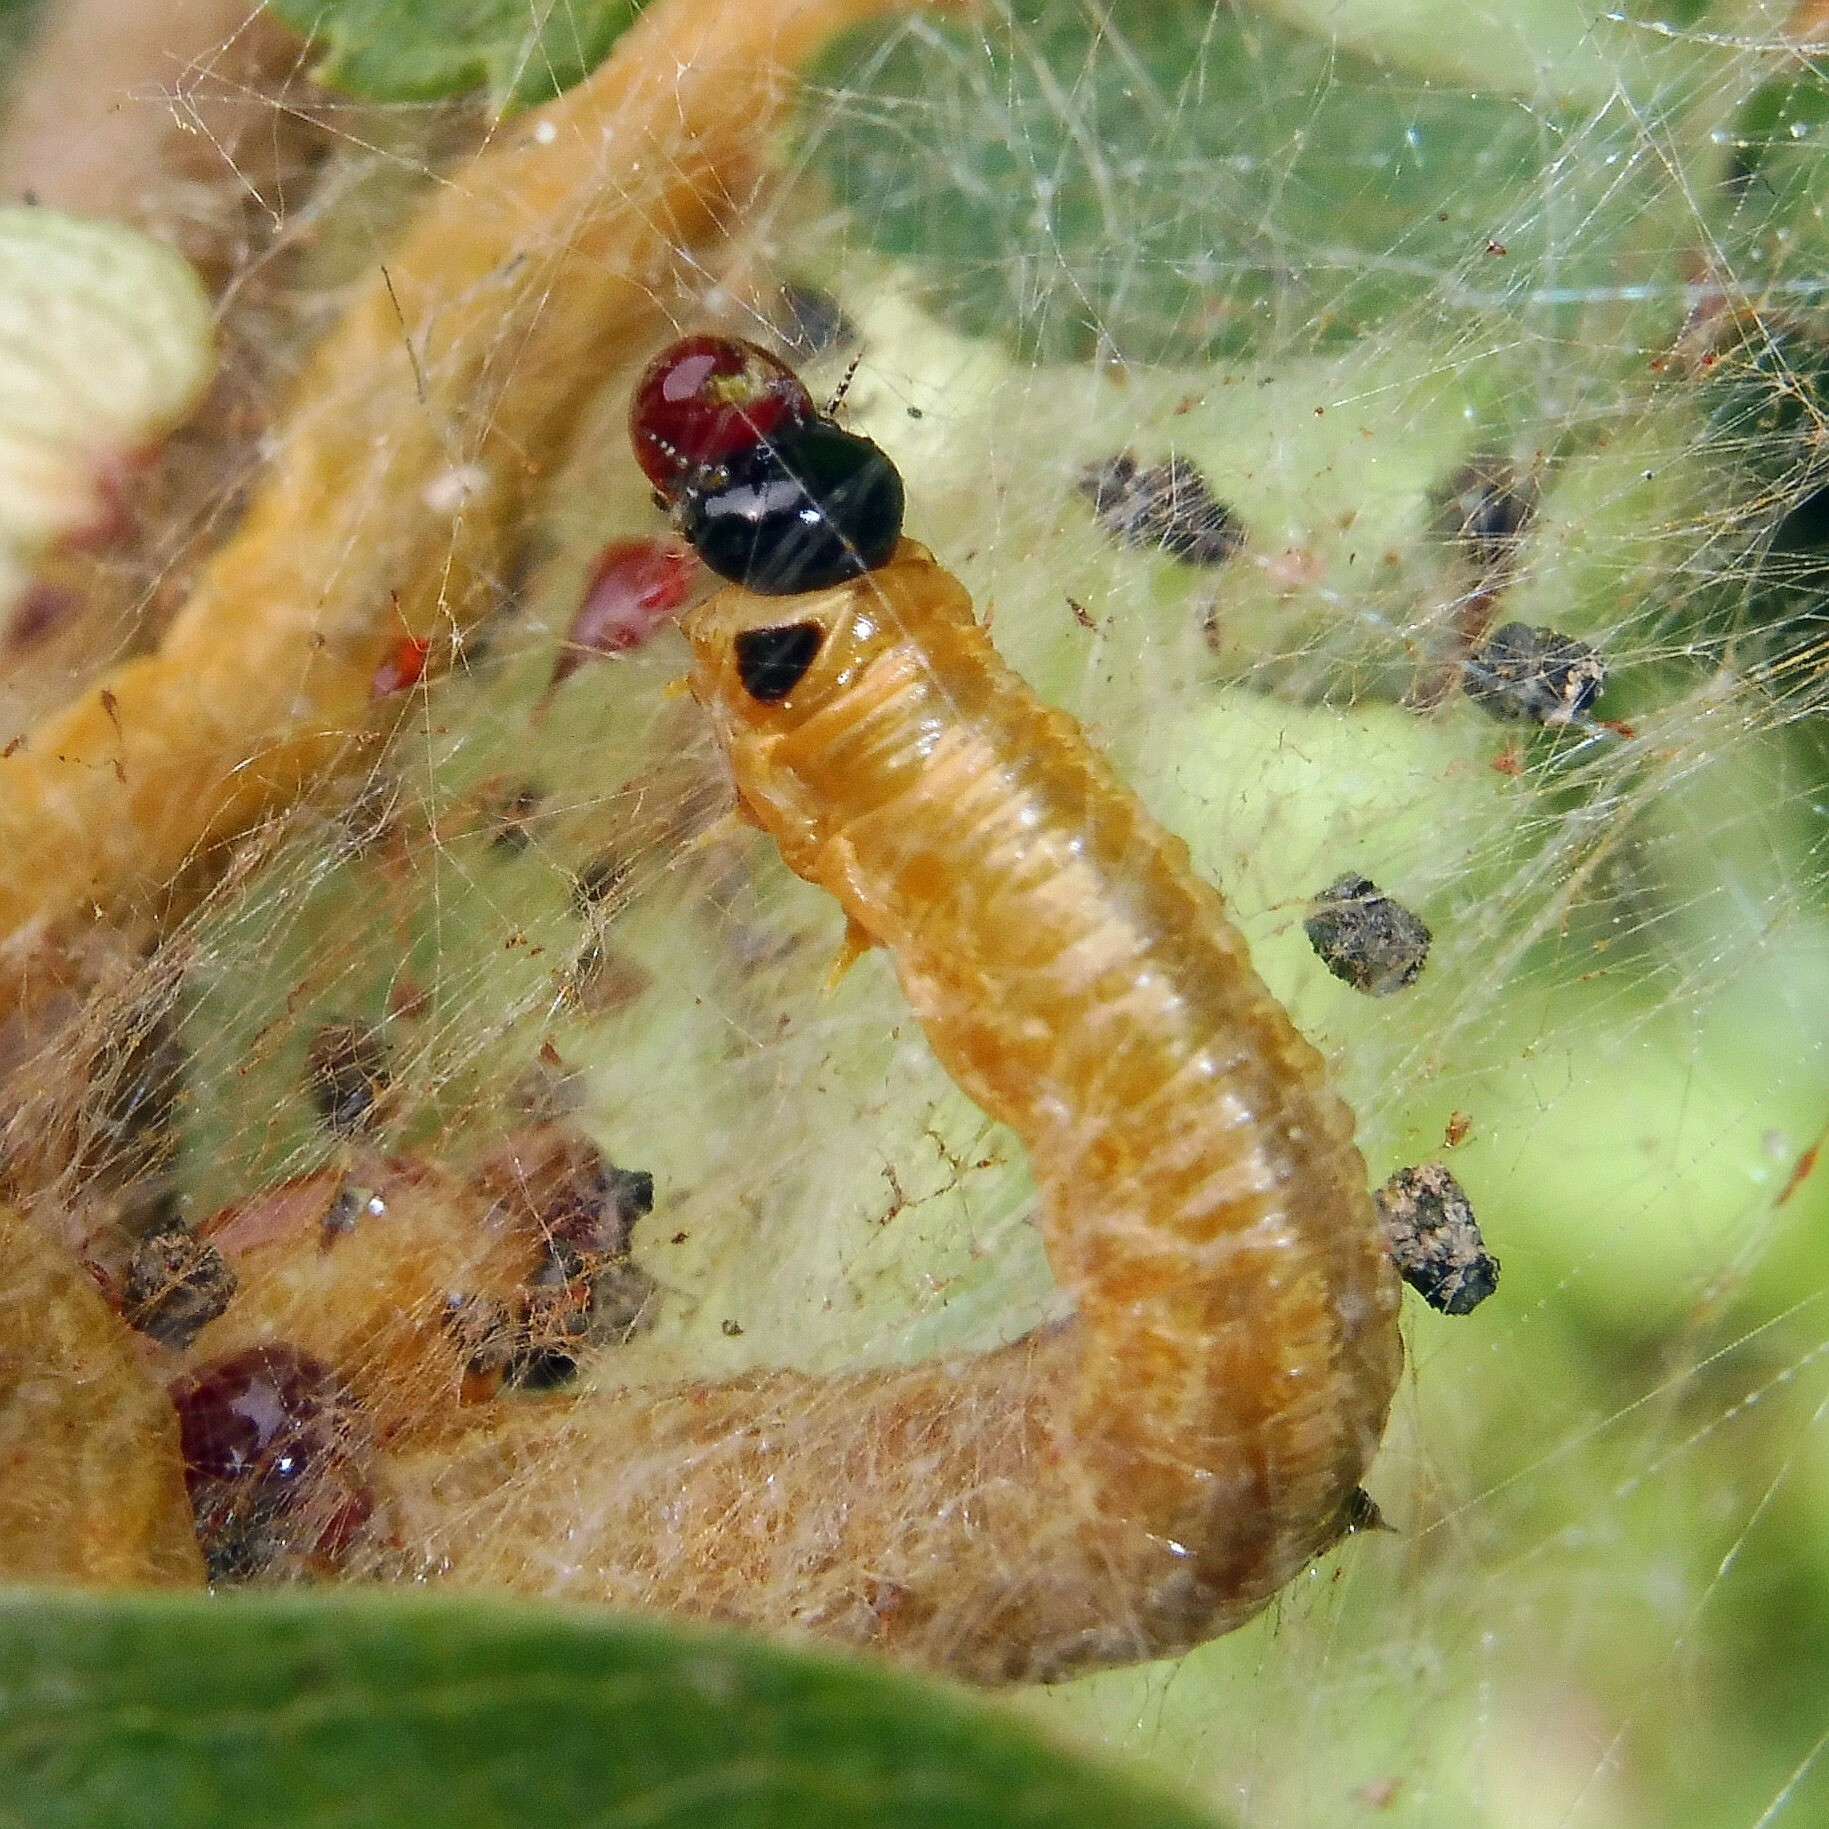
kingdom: Animalia
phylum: Arthropoda
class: Insecta
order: Hymenoptera
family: Pamphiliidae
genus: Neurotoma
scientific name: Neurotoma saltuum
